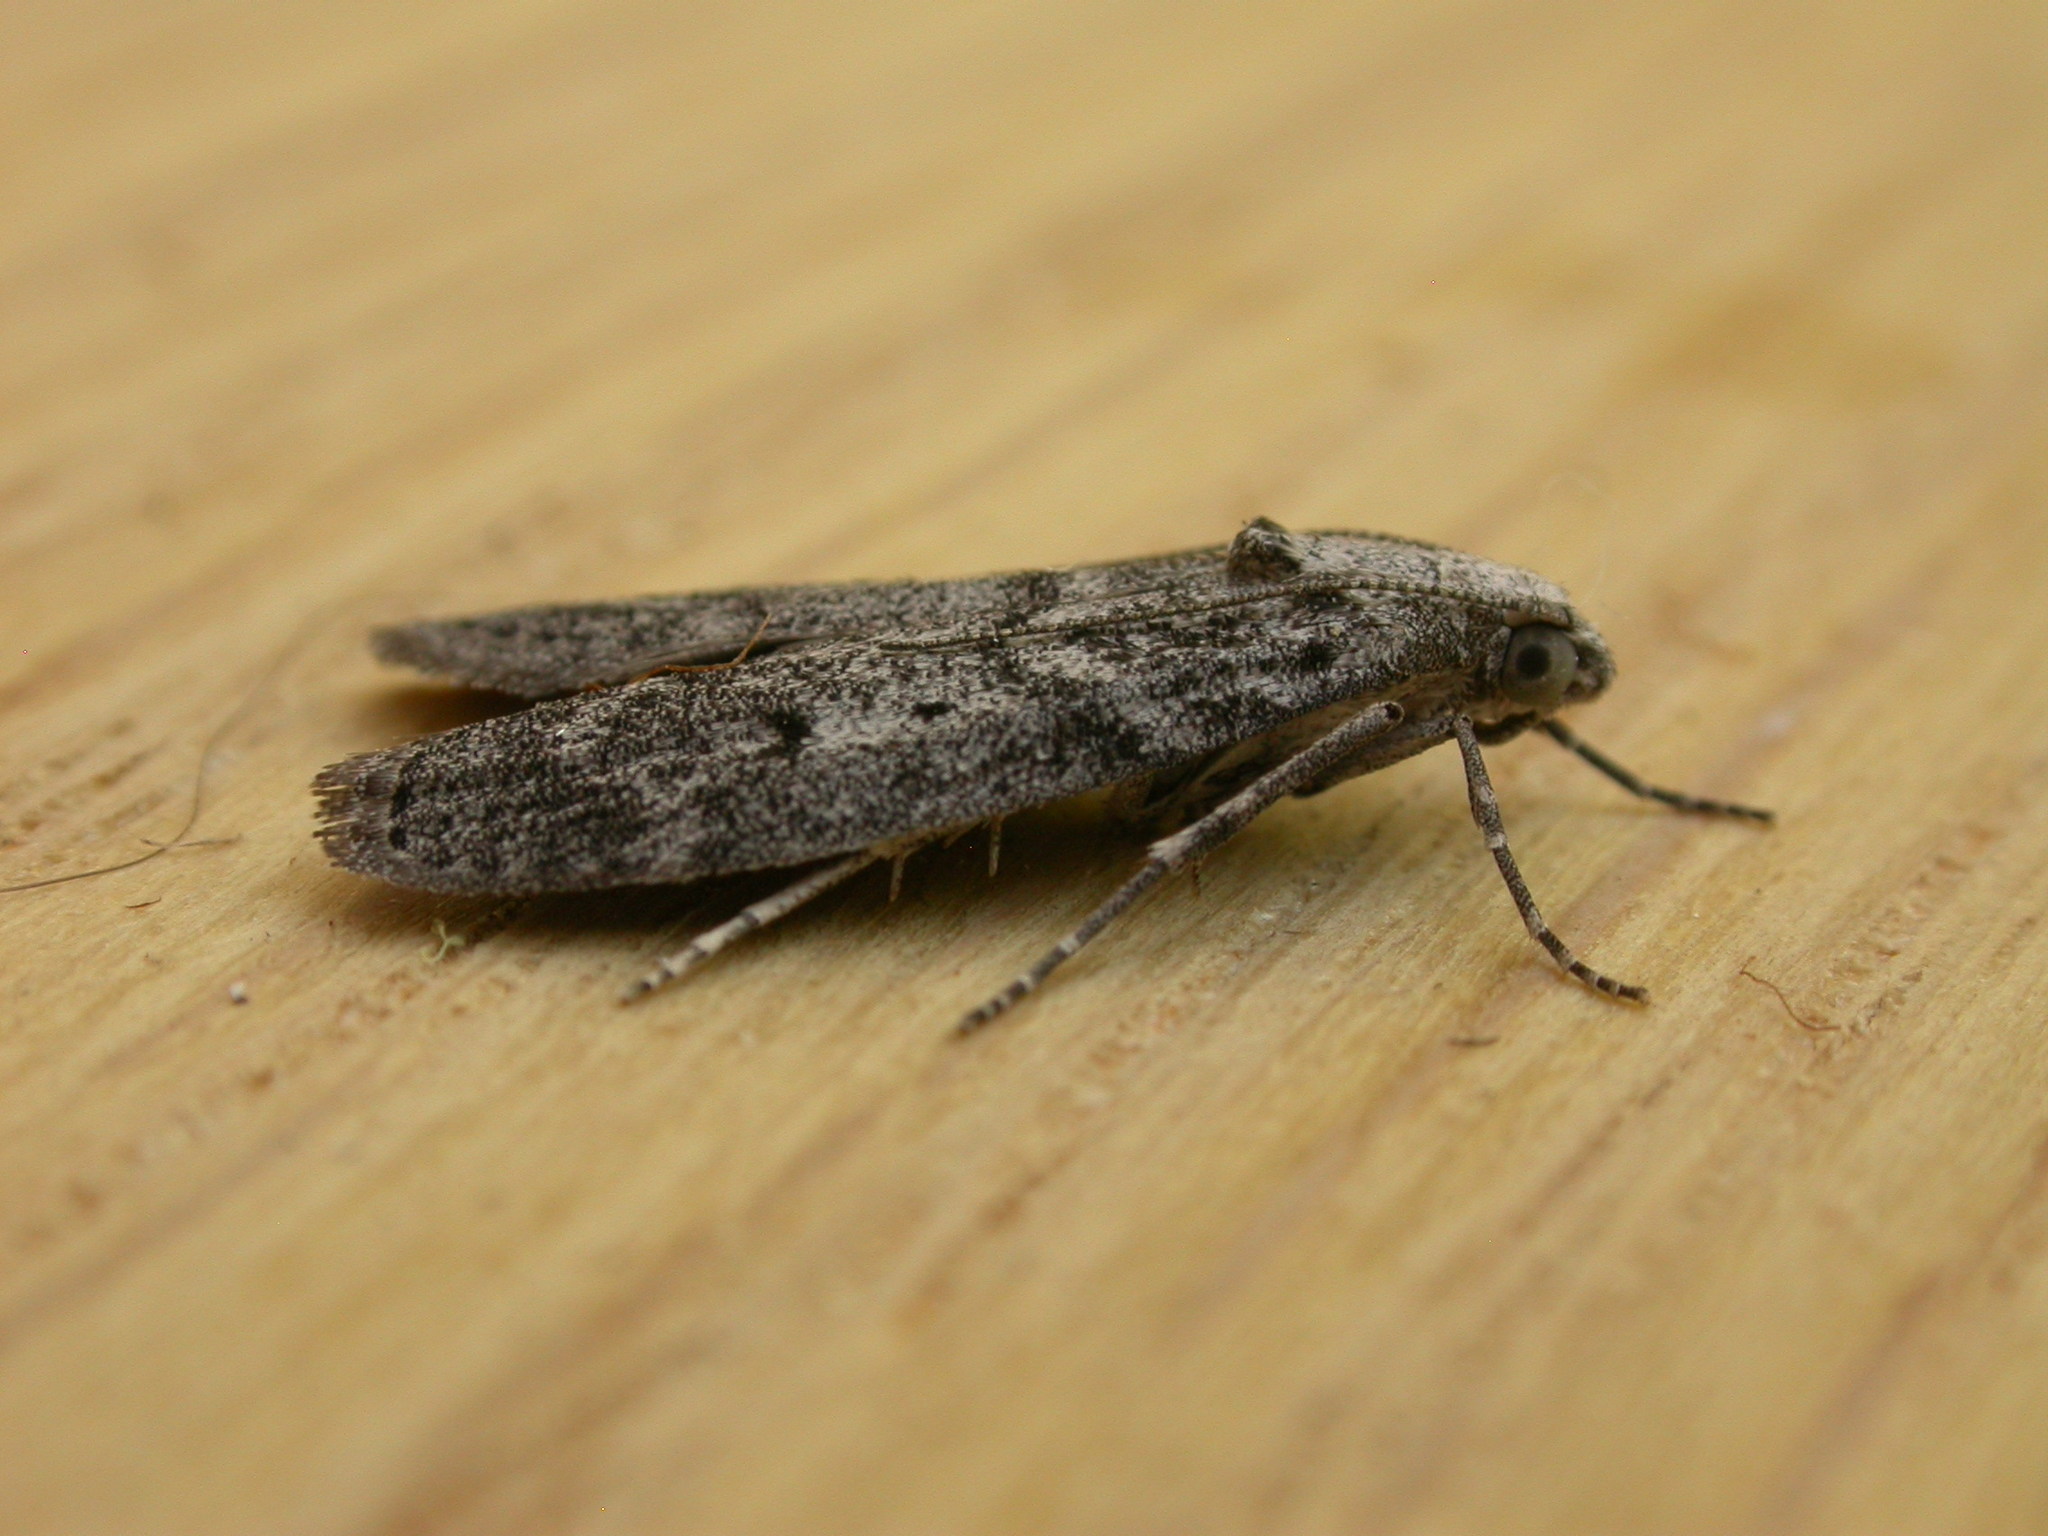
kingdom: Animalia
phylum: Arthropoda
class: Insecta
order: Lepidoptera
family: Pyralidae
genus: Heteromicta
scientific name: Heteromicta pachytera
